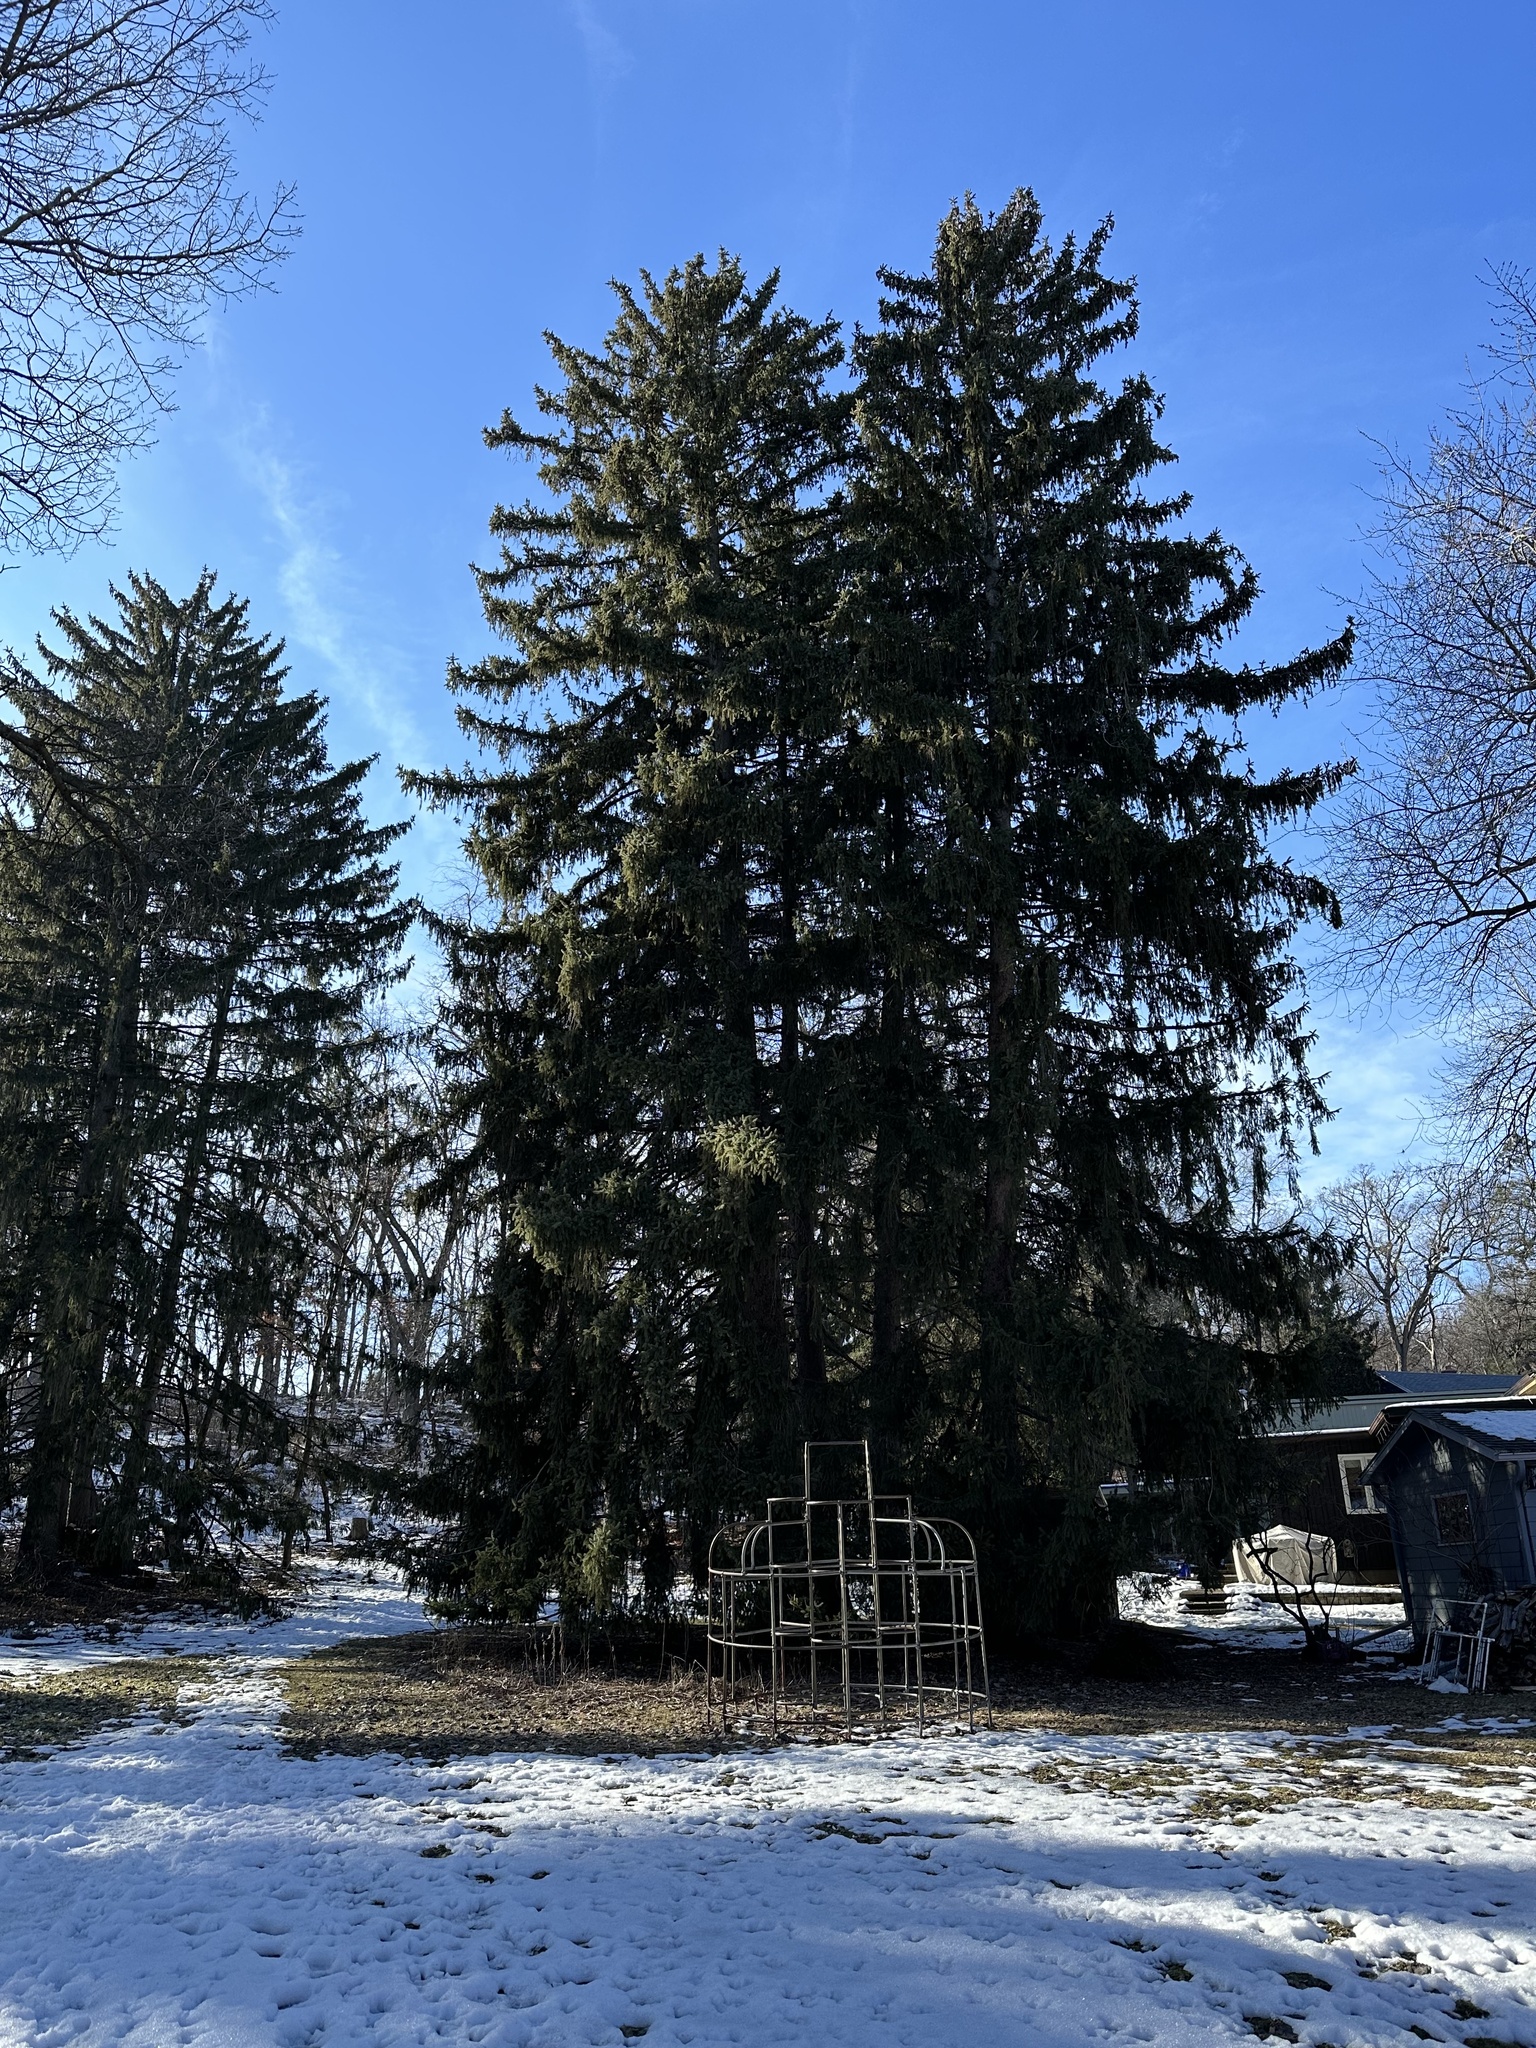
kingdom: Plantae
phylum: Tracheophyta
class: Pinopsida
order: Pinales
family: Pinaceae
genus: Picea
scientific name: Picea abies
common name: Norway spruce
